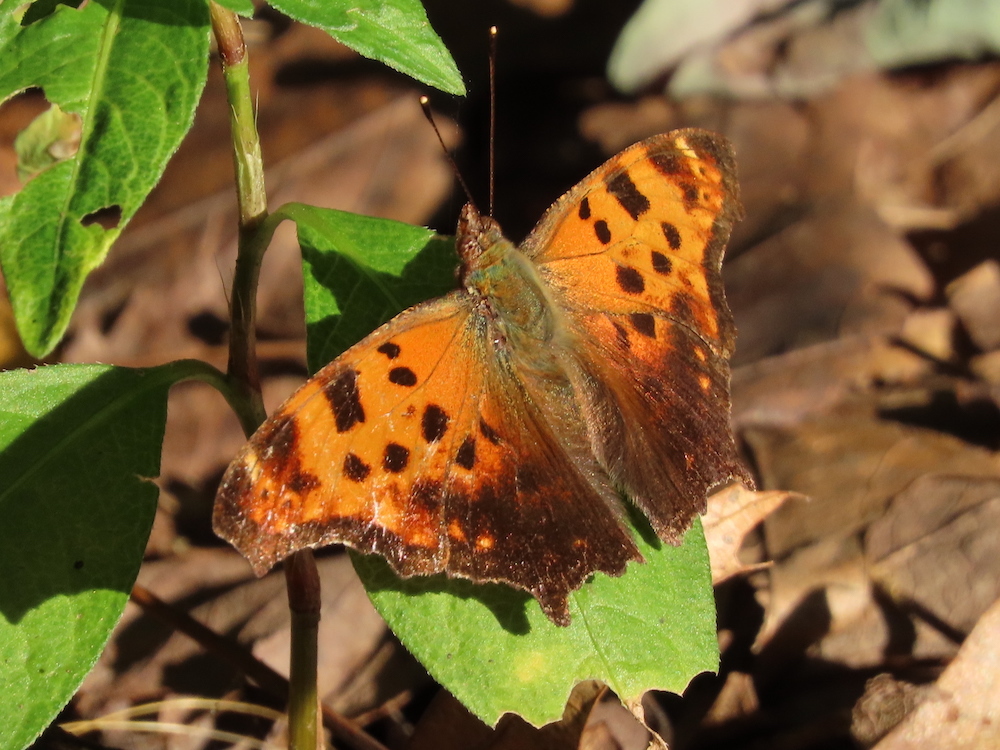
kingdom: Animalia
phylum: Arthropoda
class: Insecta
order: Lepidoptera
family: Nymphalidae
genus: Polygonia
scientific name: Polygonia comma
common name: Eastern comma
